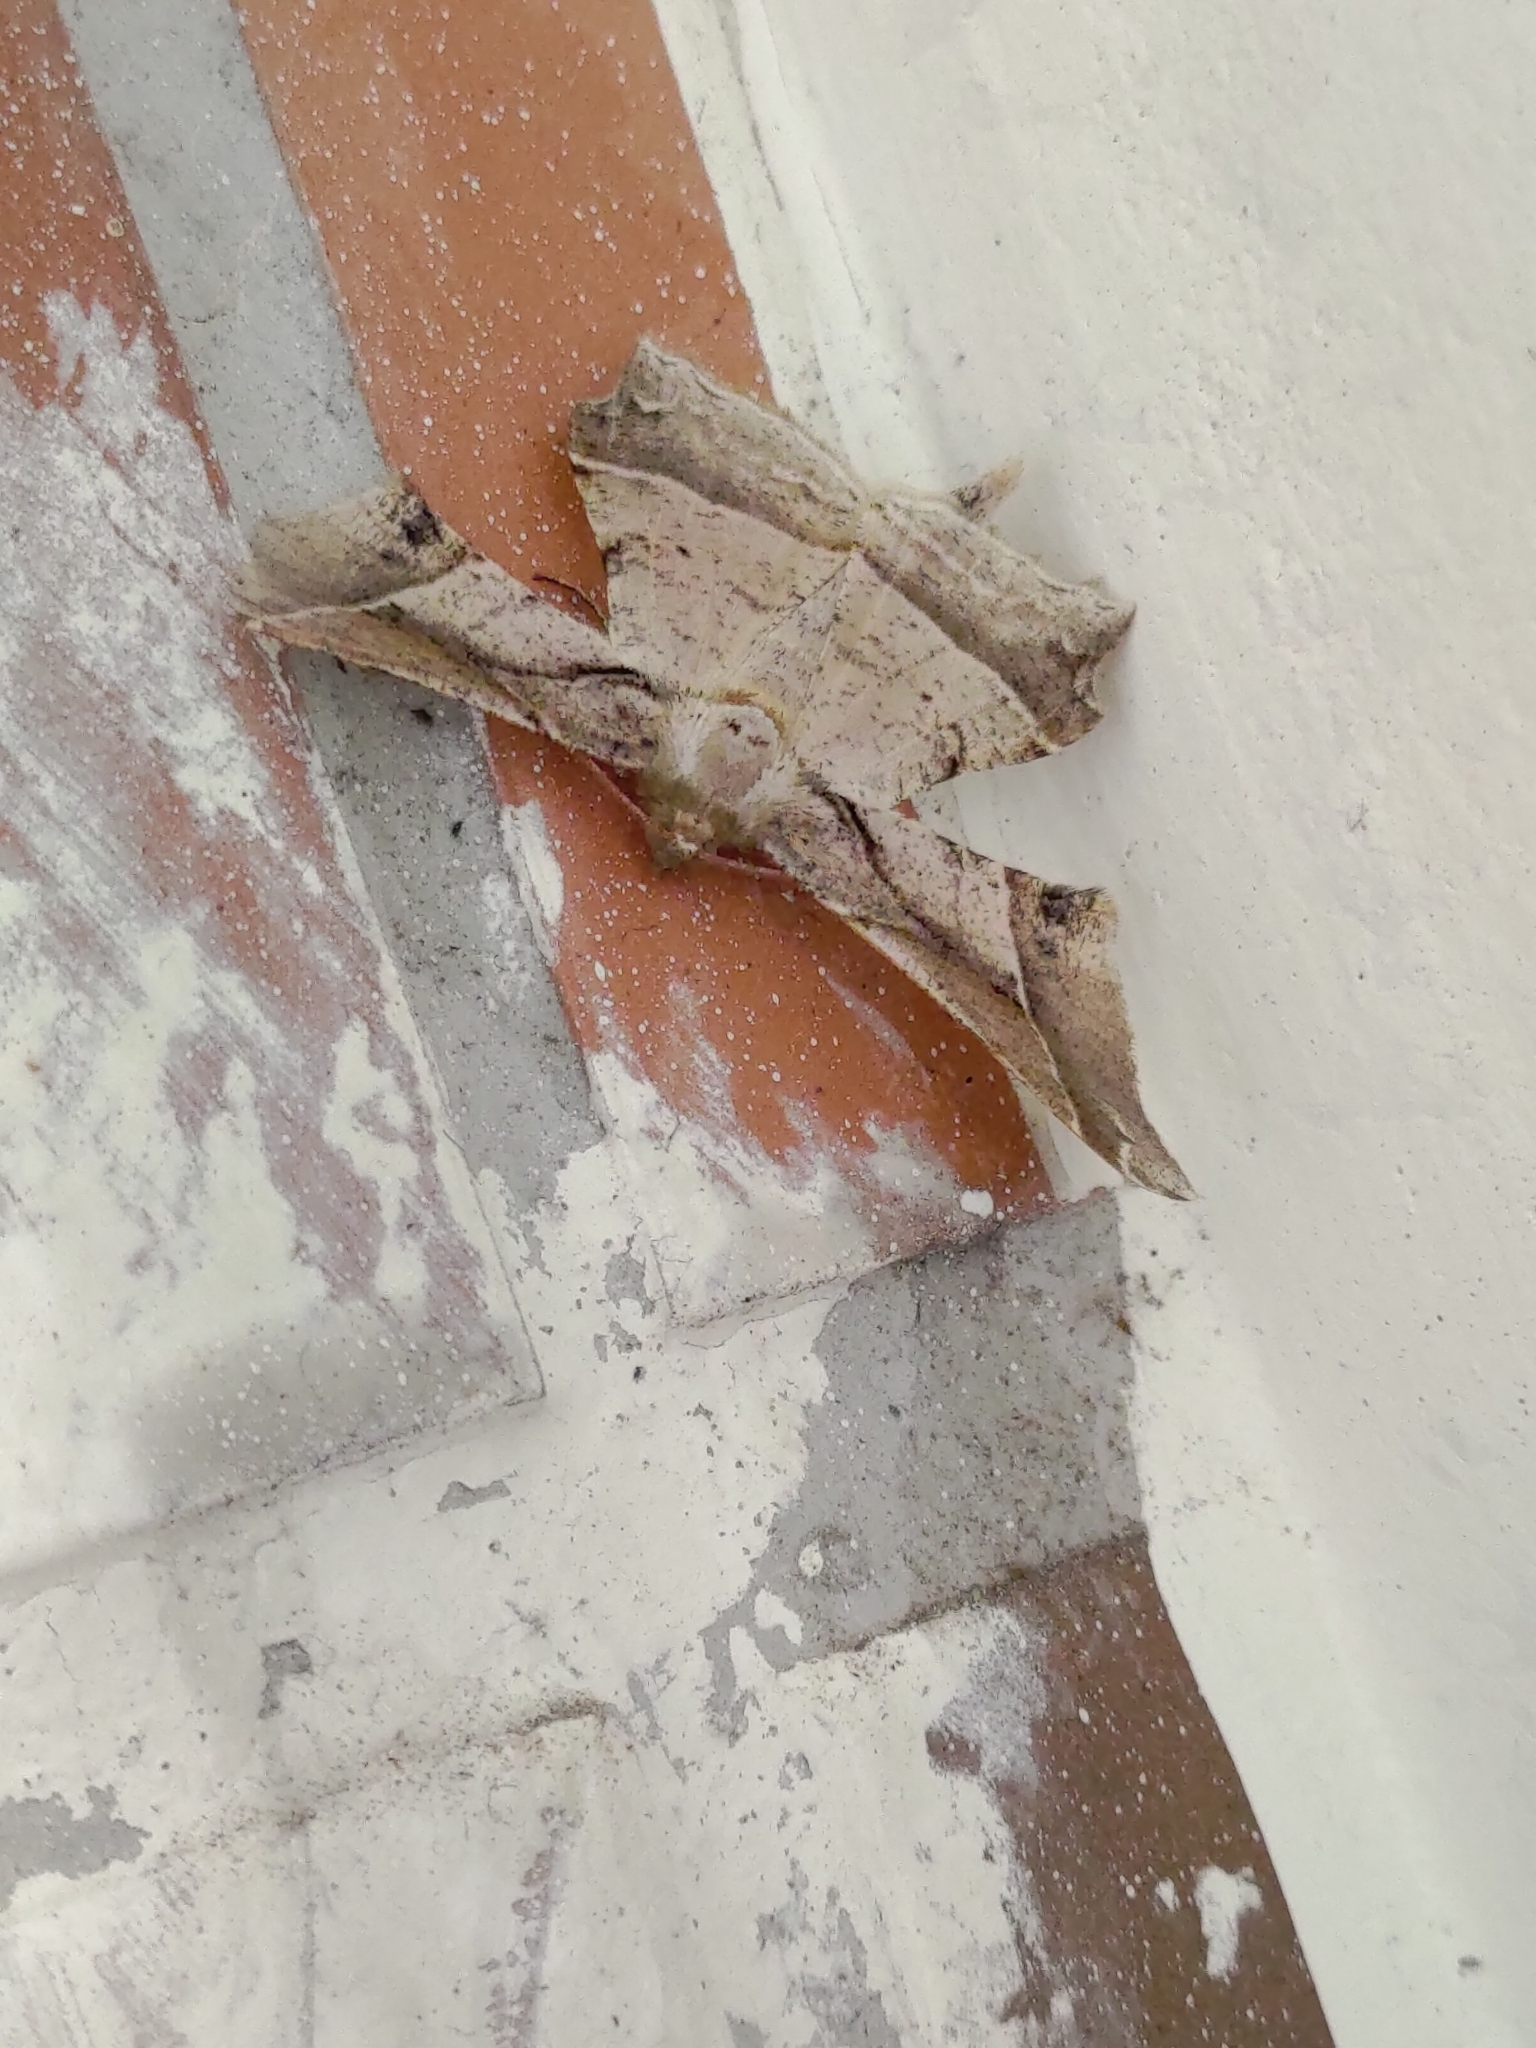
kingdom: Animalia
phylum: Arthropoda
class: Insecta
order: Lepidoptera
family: Geometridae
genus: Krananda
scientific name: Krananda latimarginaria
